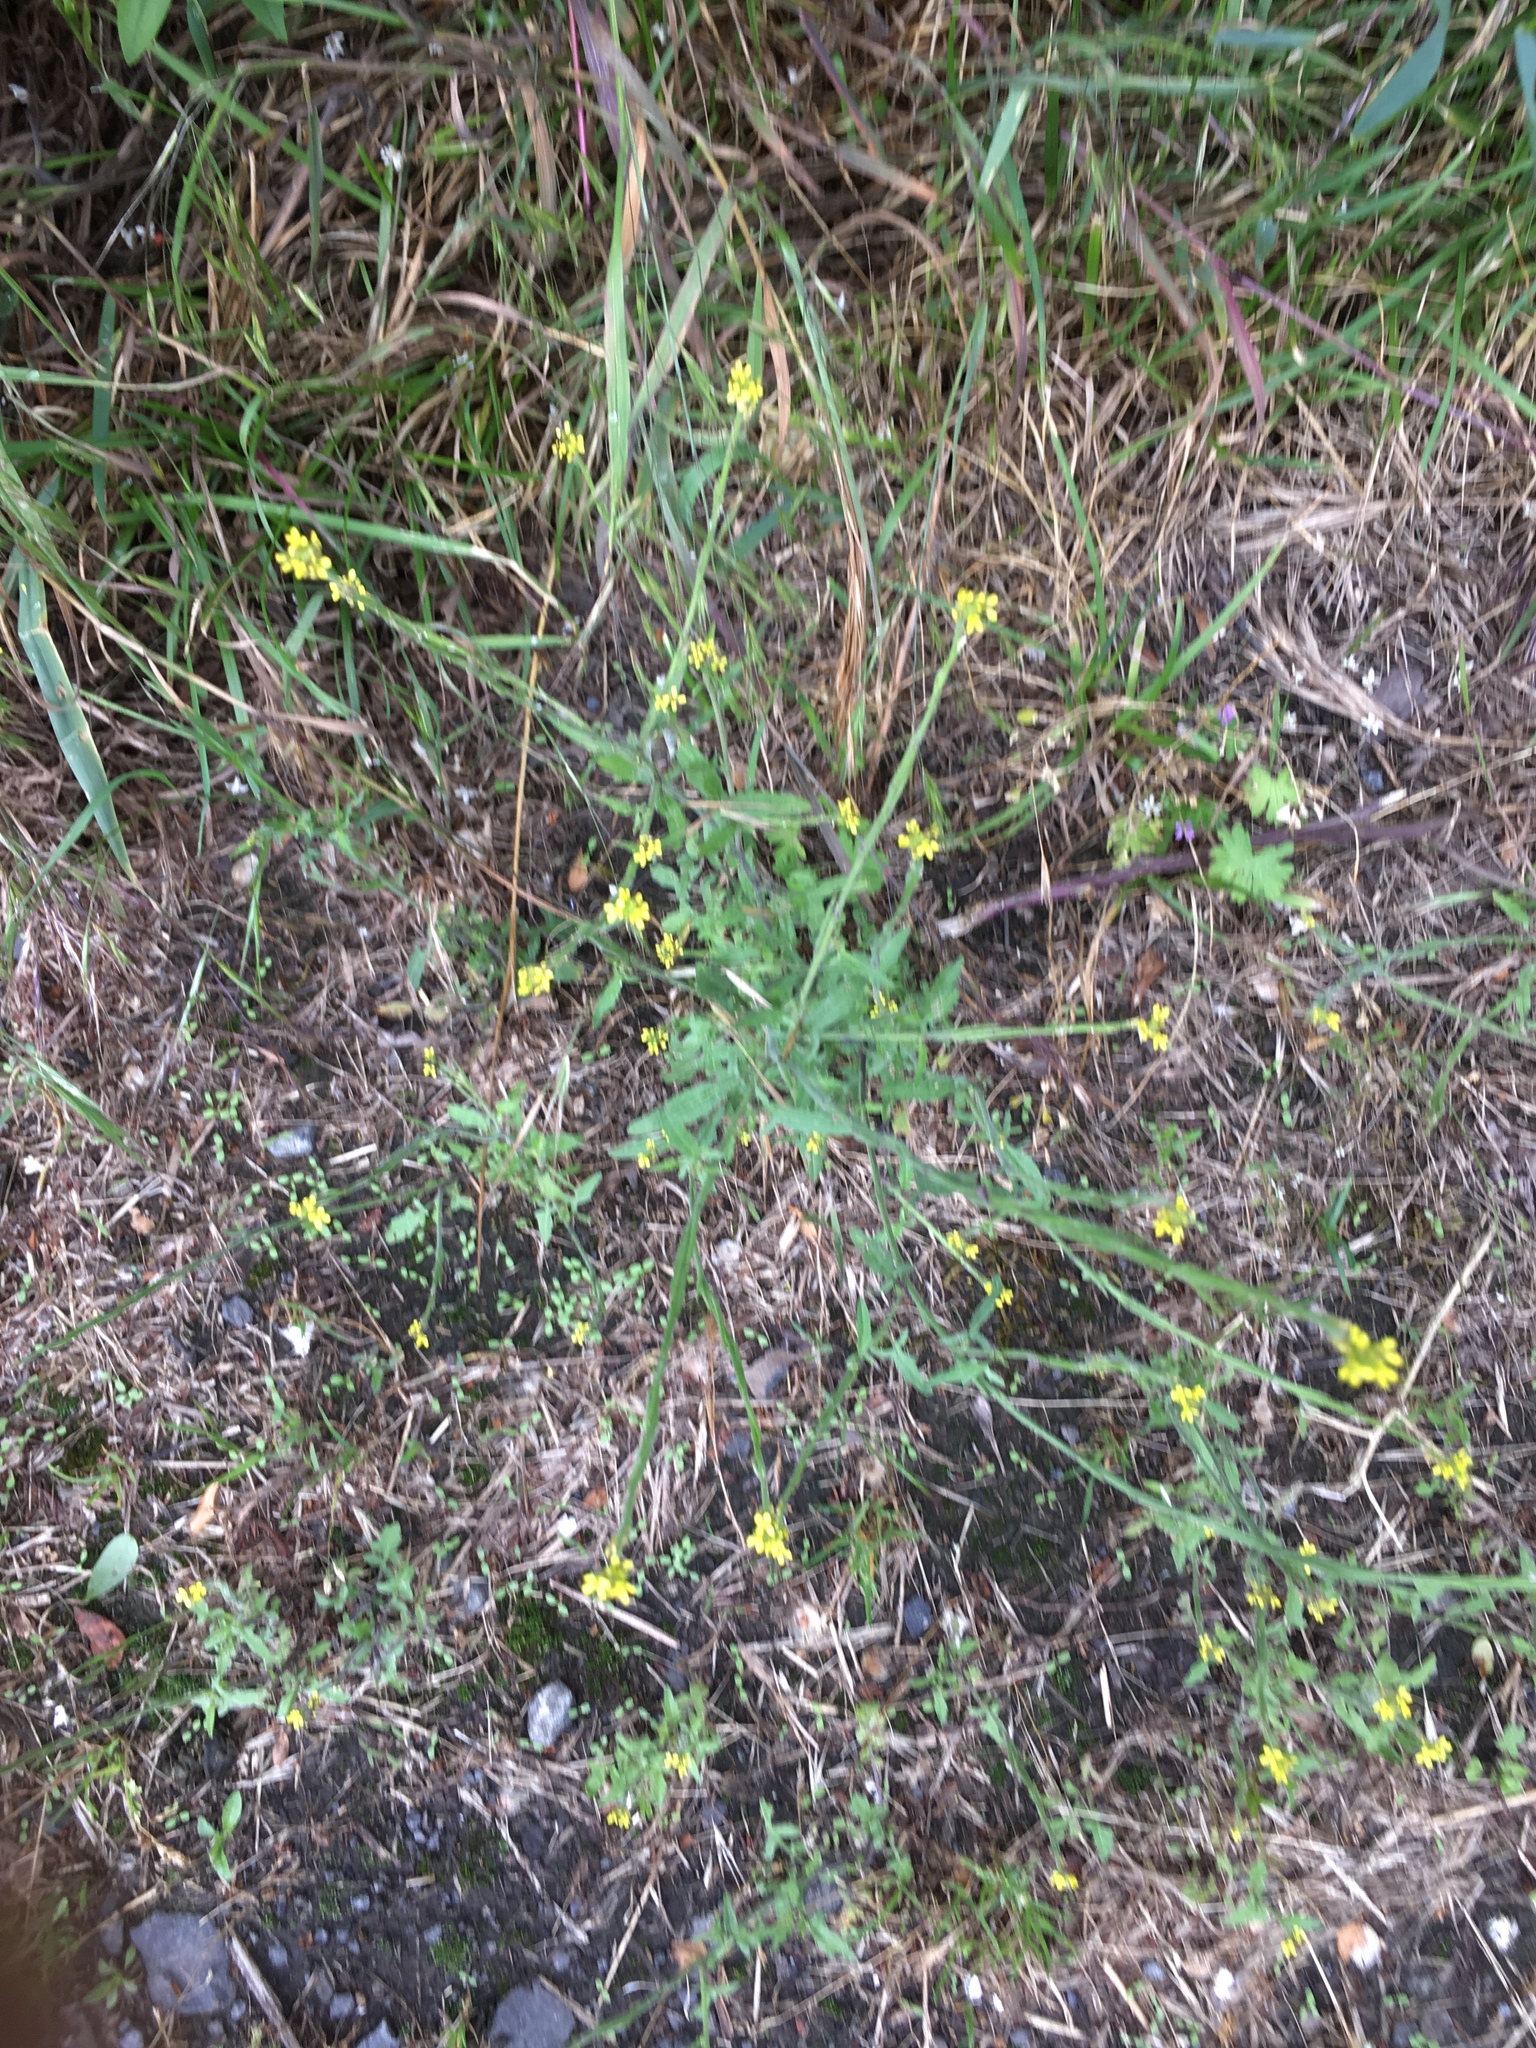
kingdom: Plantae
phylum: Tracheophyta
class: Magnoliopsida
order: Brassicales
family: Brassicaceae
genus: Sisymbrium
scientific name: Sisymbrium officinale
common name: Hedge mustard
